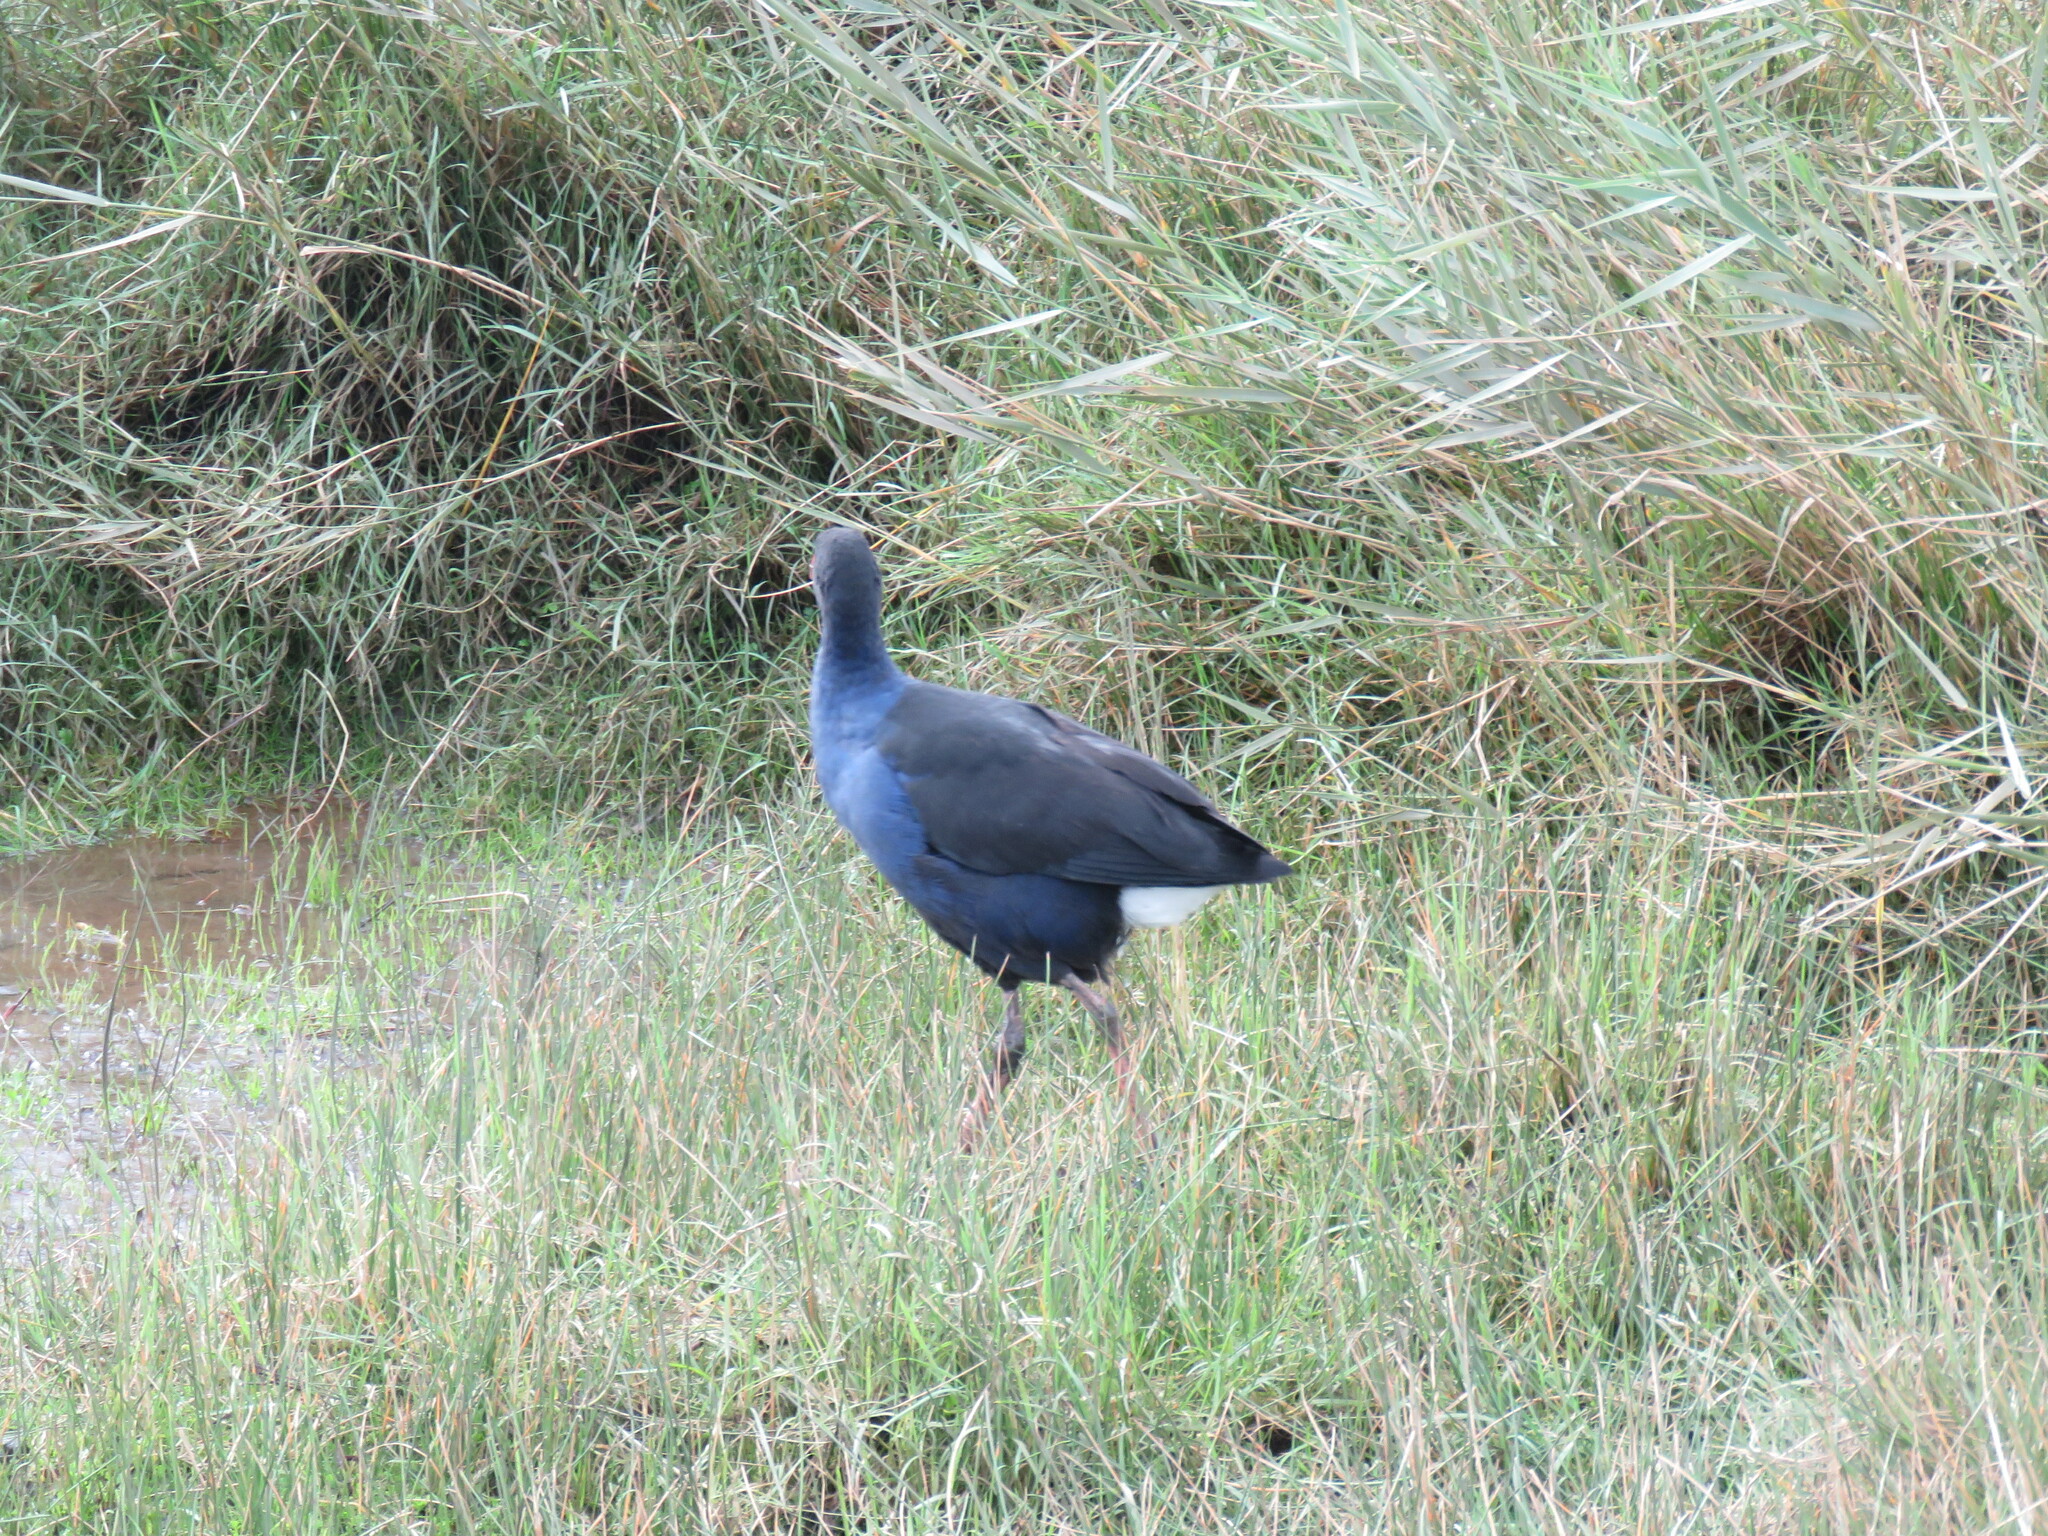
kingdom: Animalia
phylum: Chordata
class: Aves
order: Gruiformes
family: Rallidae
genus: Porphyrio
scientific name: Porphyrio melanotus
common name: Australasian swamphen
